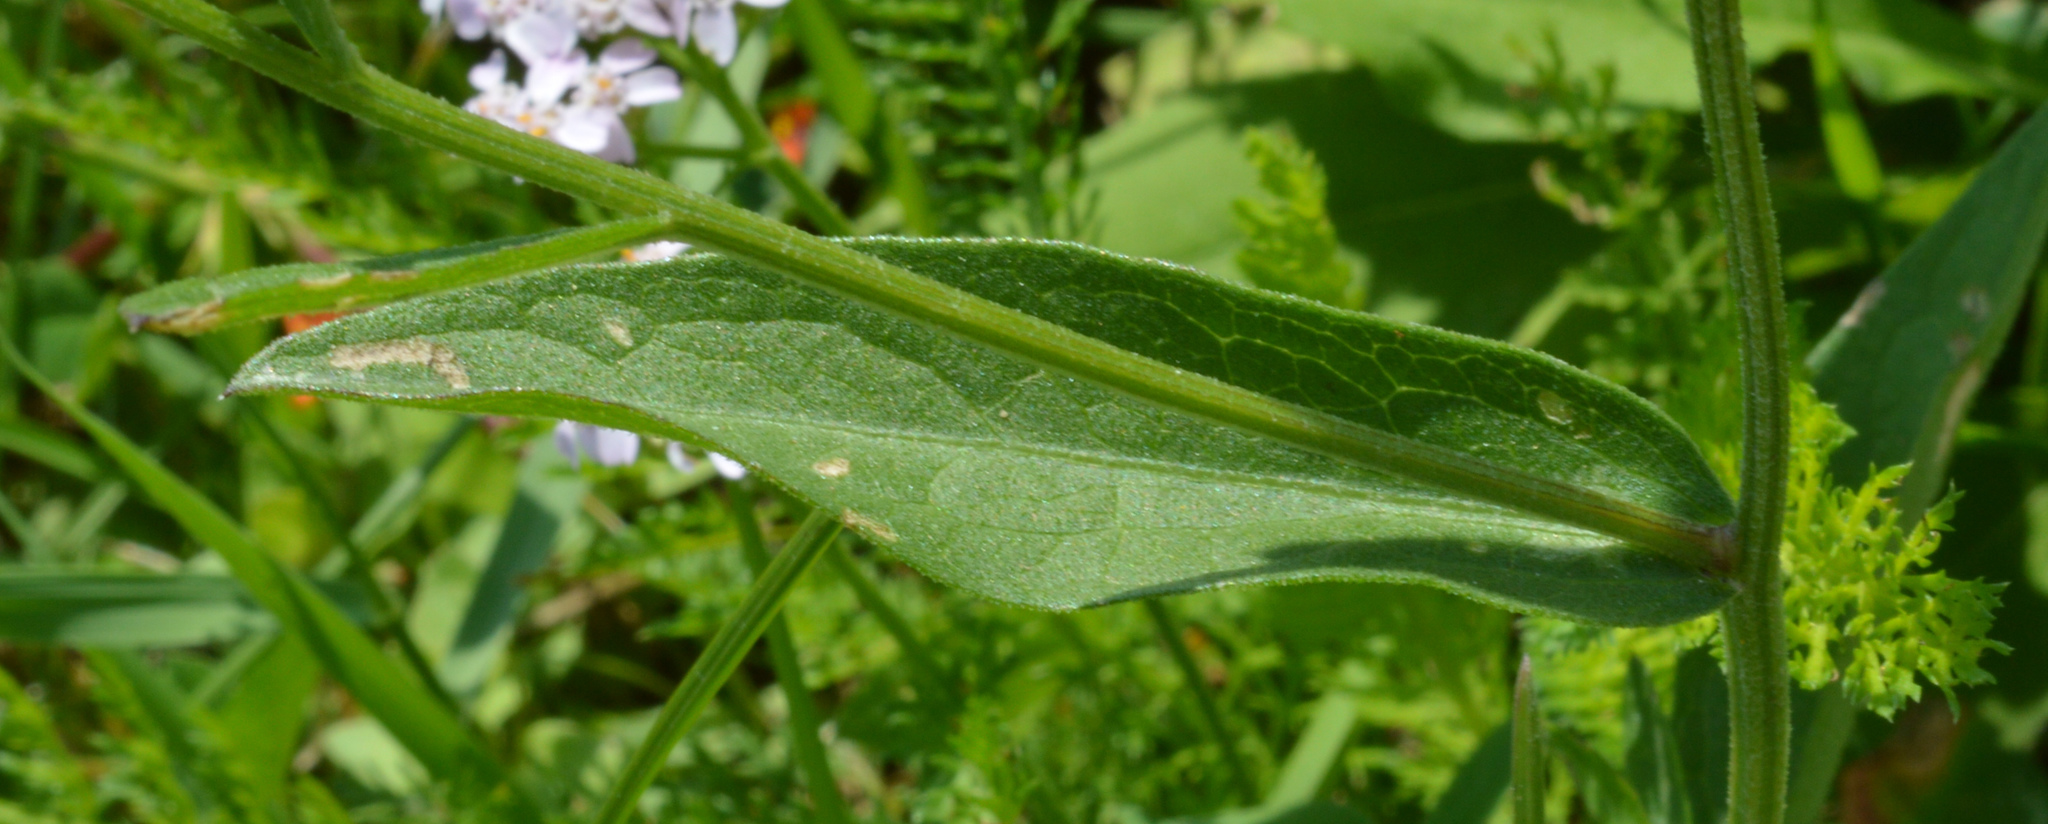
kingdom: Plantae
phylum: Tracheophyta
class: Magnoliopsida
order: Asterales
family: Asteraceae
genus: Centaurea
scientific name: Centaurea nigrescens
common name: Tyrol knapweed
